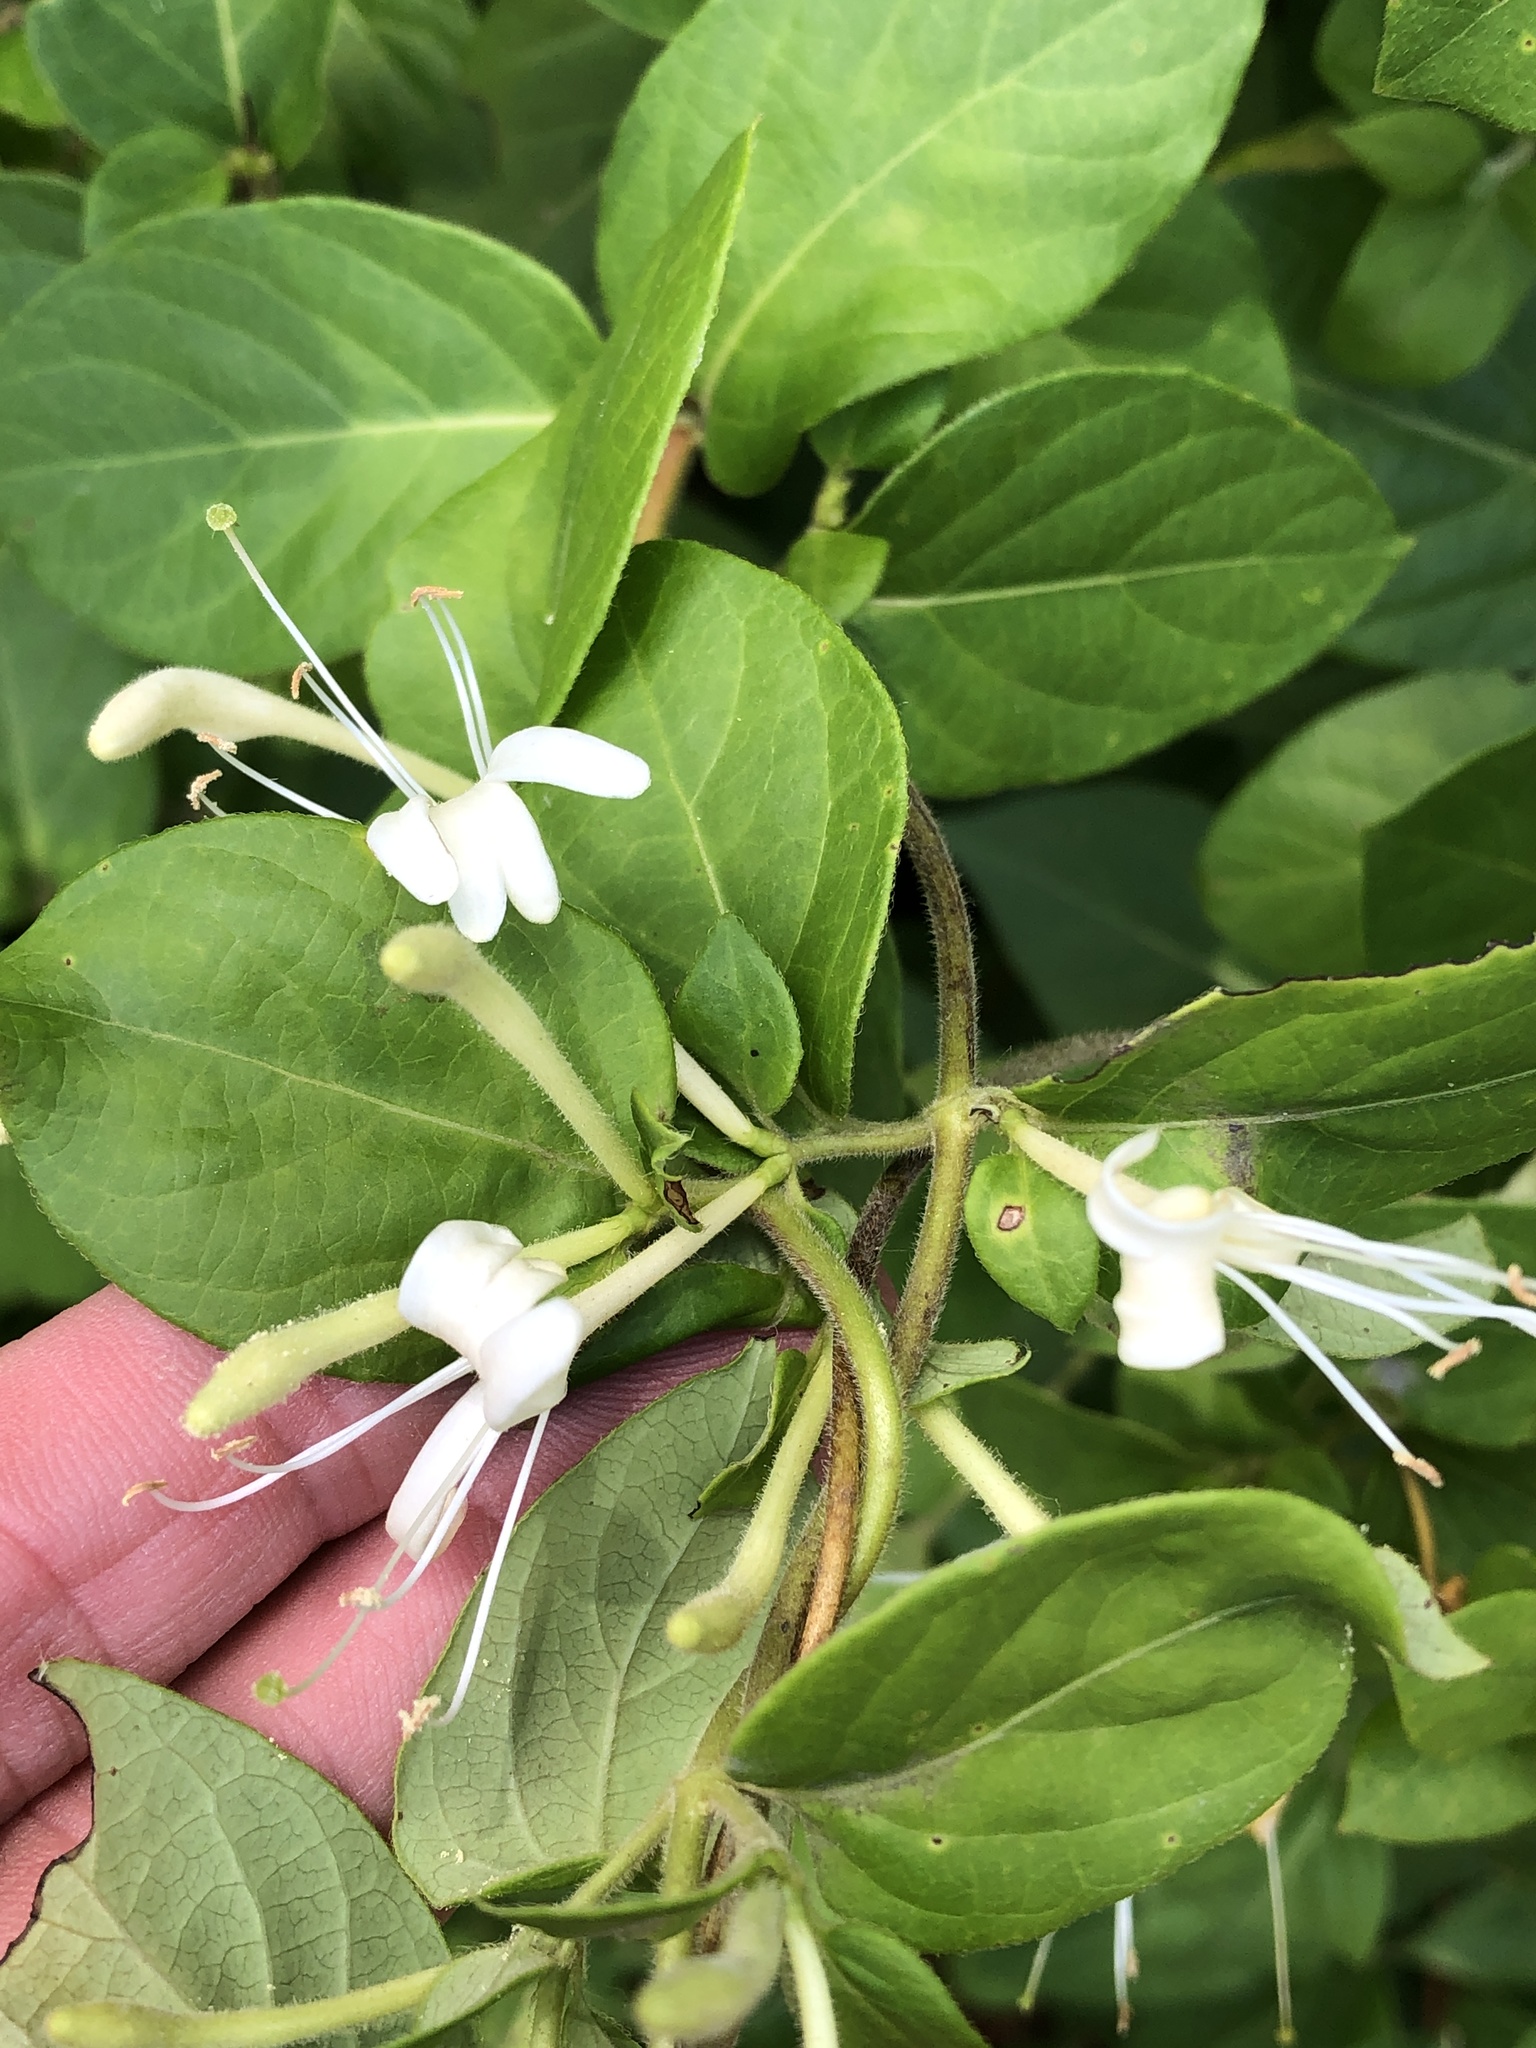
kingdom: Plantae
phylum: Tracheophyta
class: Magnoliopsida
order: Dipsacales
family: Caprifoliaceae
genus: Lonicera
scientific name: Lonicera japonica
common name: Japanese honeysuckle
